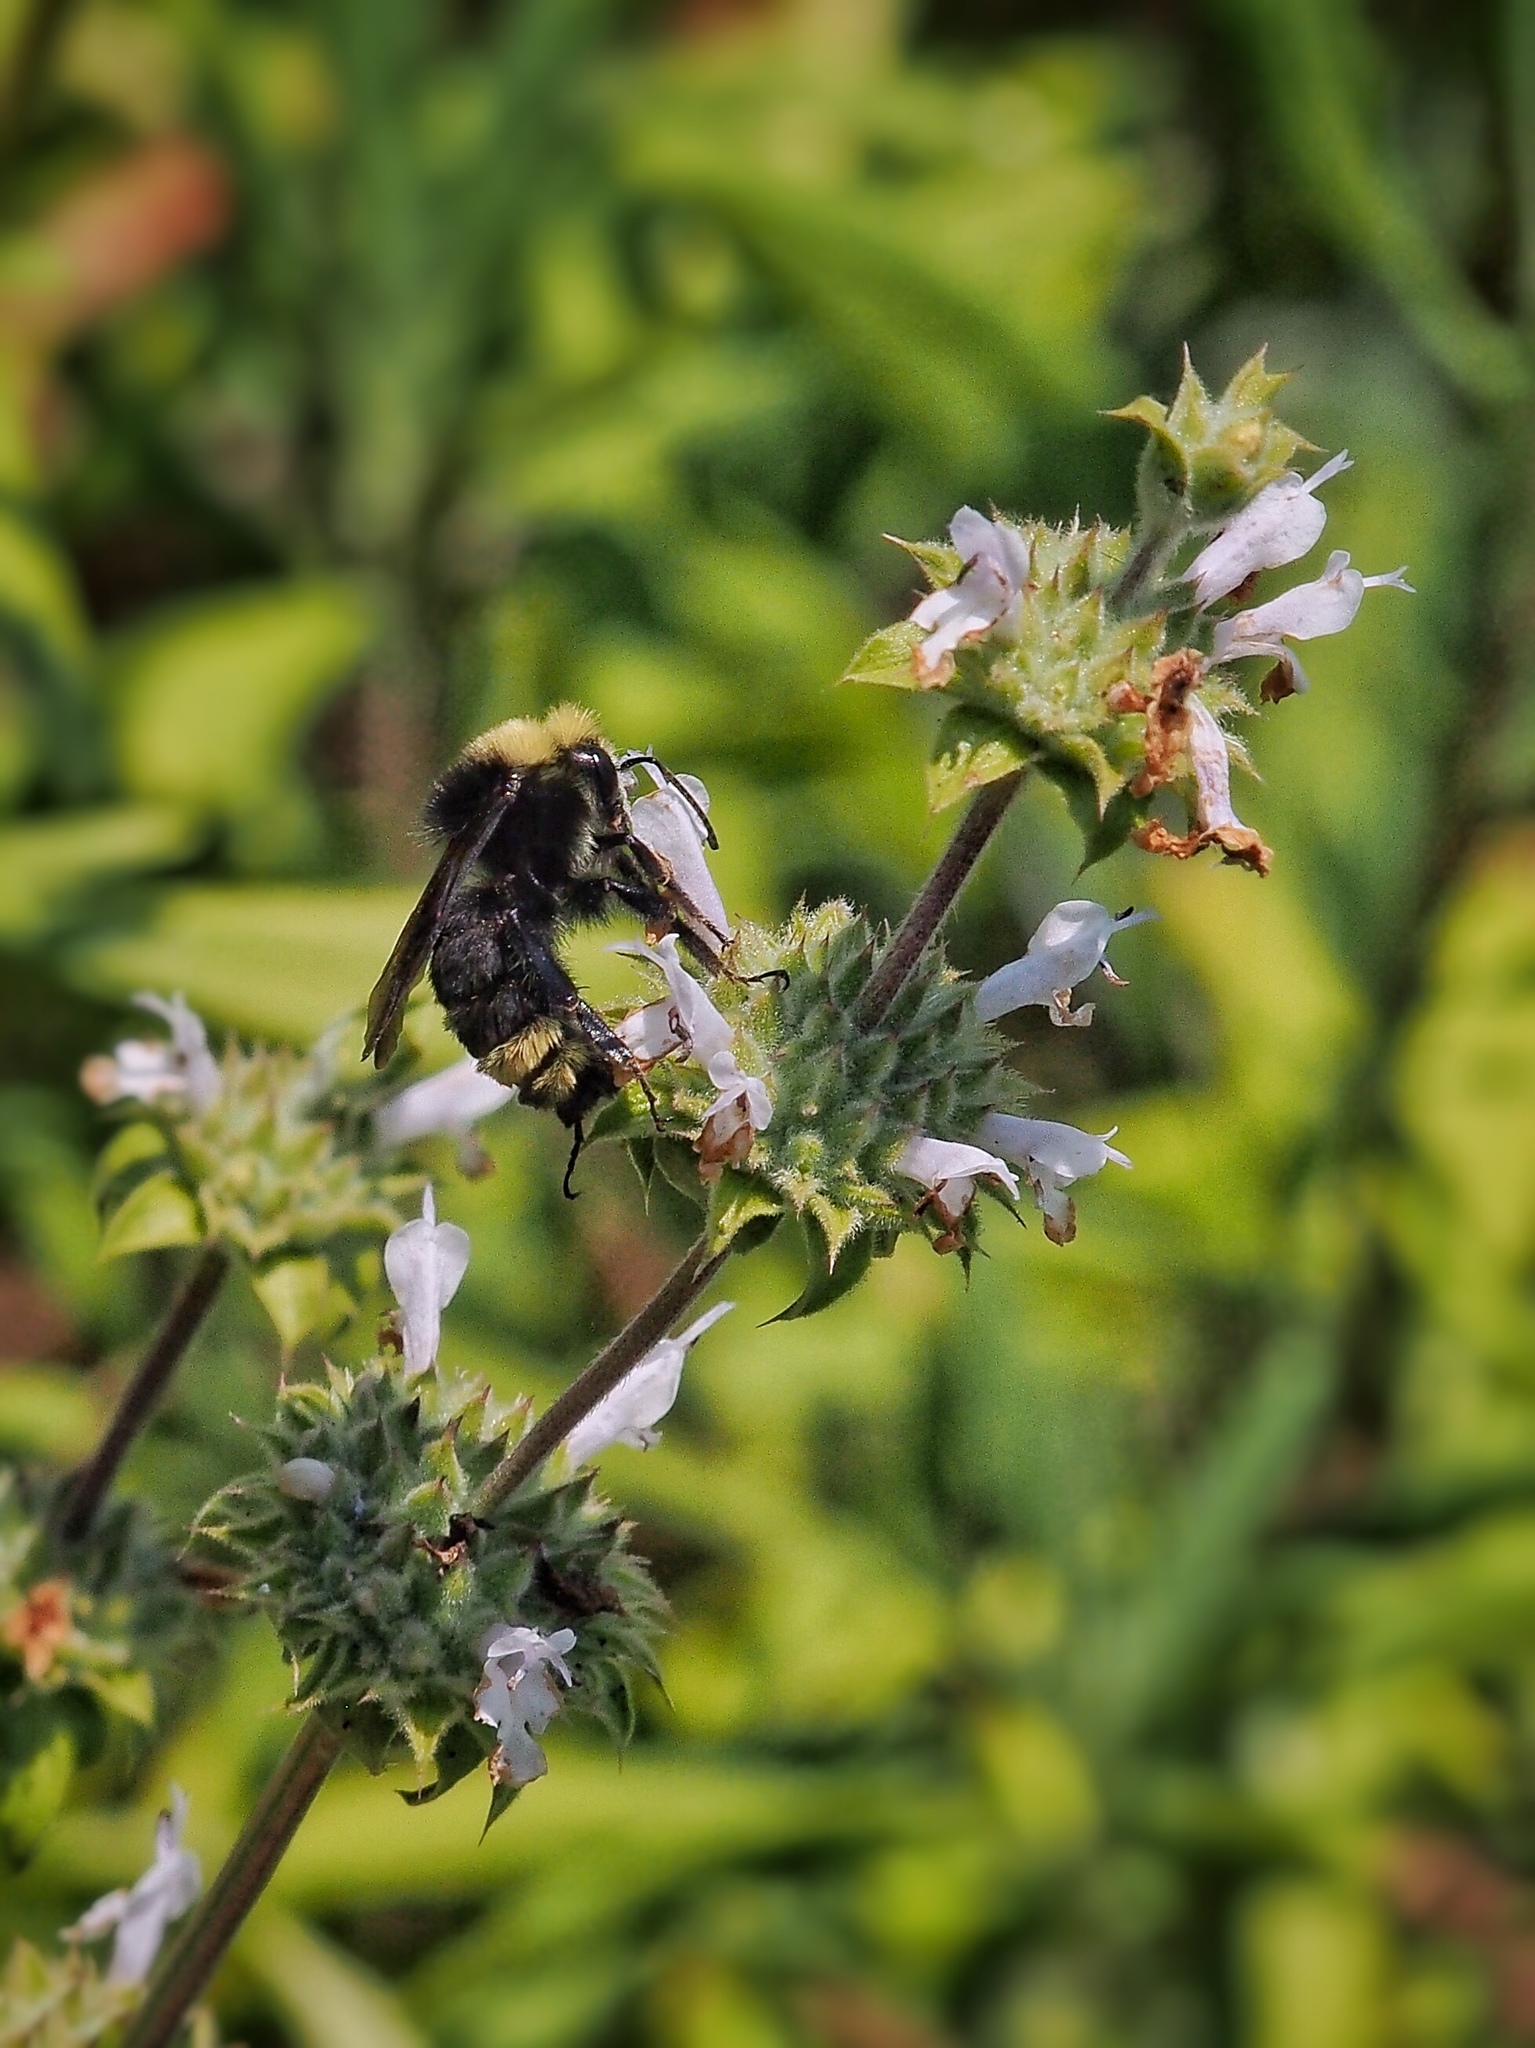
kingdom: Animalia
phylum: Arthropoda
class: Insecta
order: Hymenoptera
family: Apidae
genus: Bombus
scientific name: Bombus vosnesenskii
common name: Vosnesensky bumble bee
